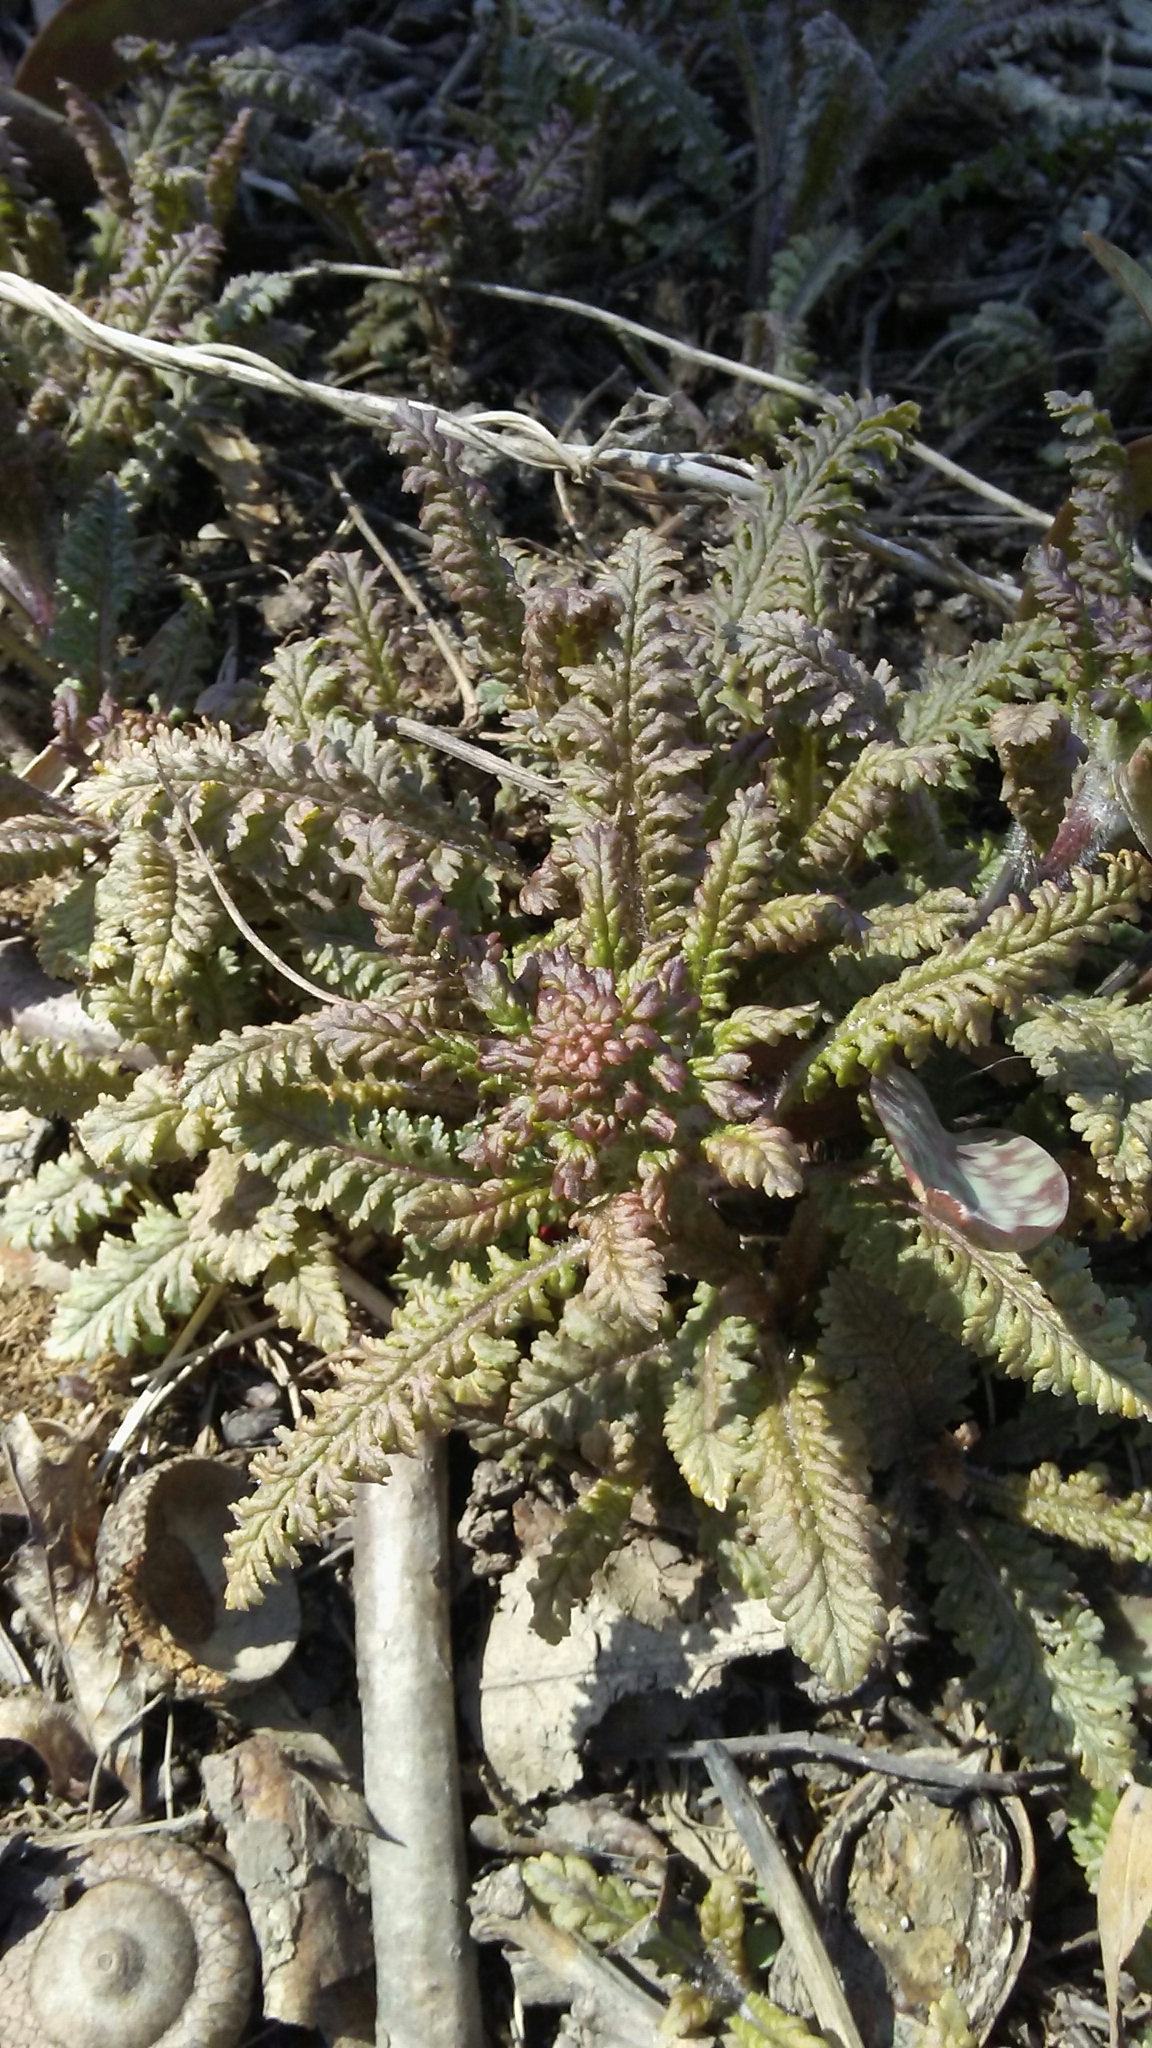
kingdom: Plantae
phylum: Tracheophyta
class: Magnoliopsida
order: Lamiales
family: Orobanchaceae
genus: Pedicularis
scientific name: Pedicularis canadensis
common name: Early lousewort
